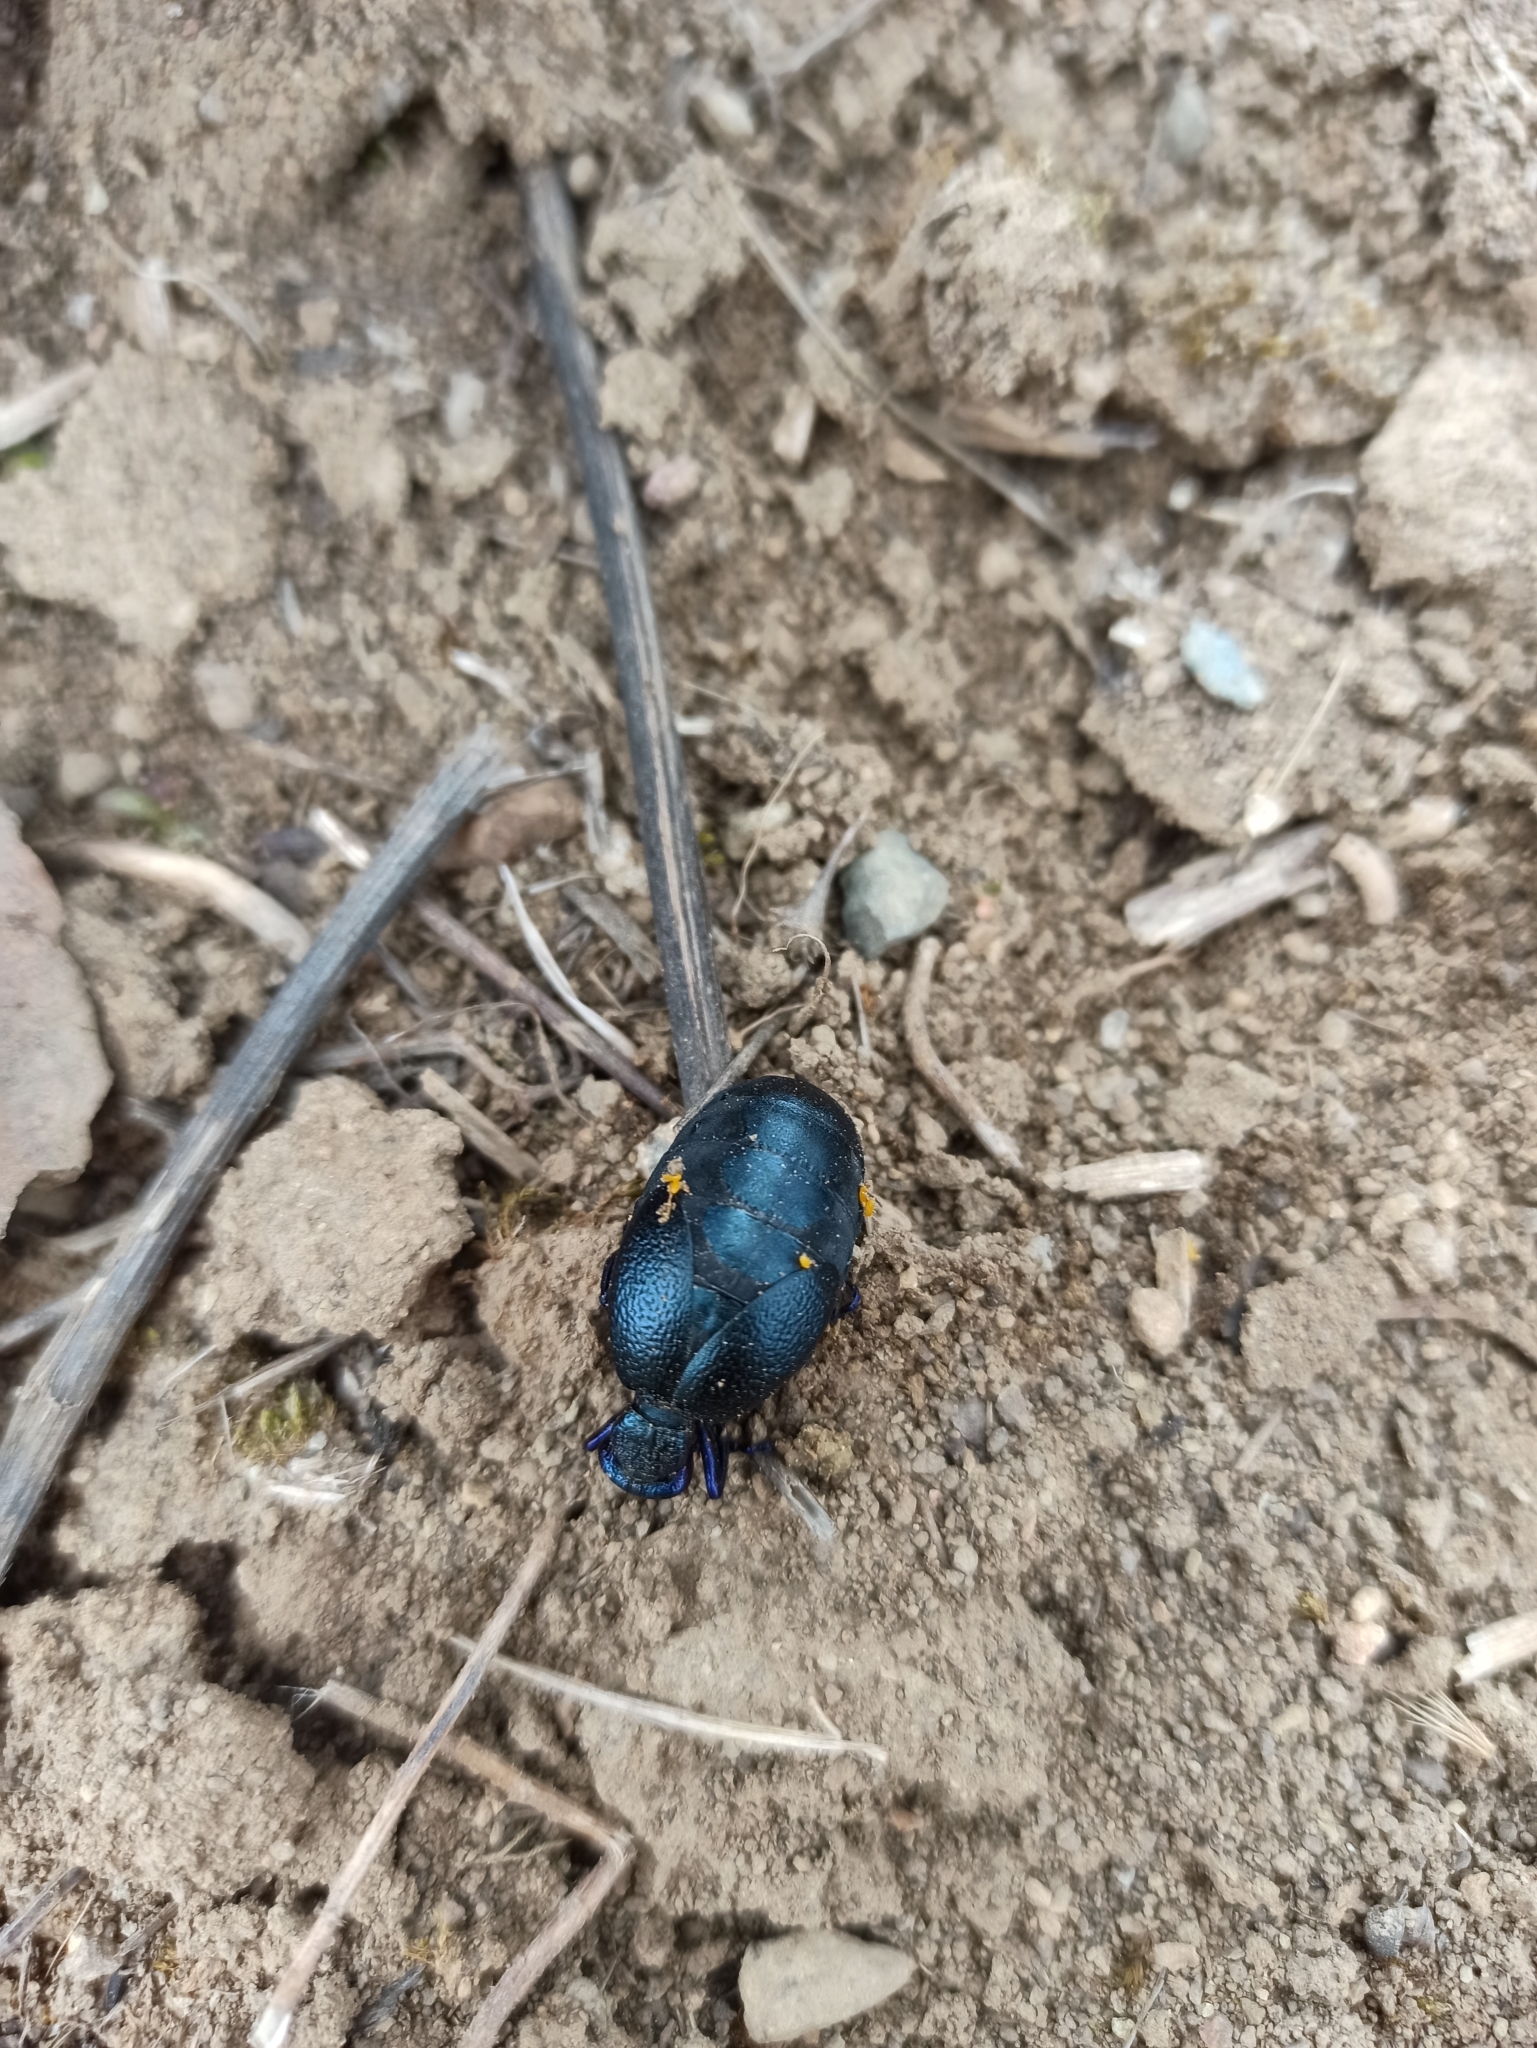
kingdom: Animalia
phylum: Arthropoda
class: Insecta
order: Coleoptera
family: Meloidae
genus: Meloe
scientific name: Meloe proscarabaeus
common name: Black oil-beetle
